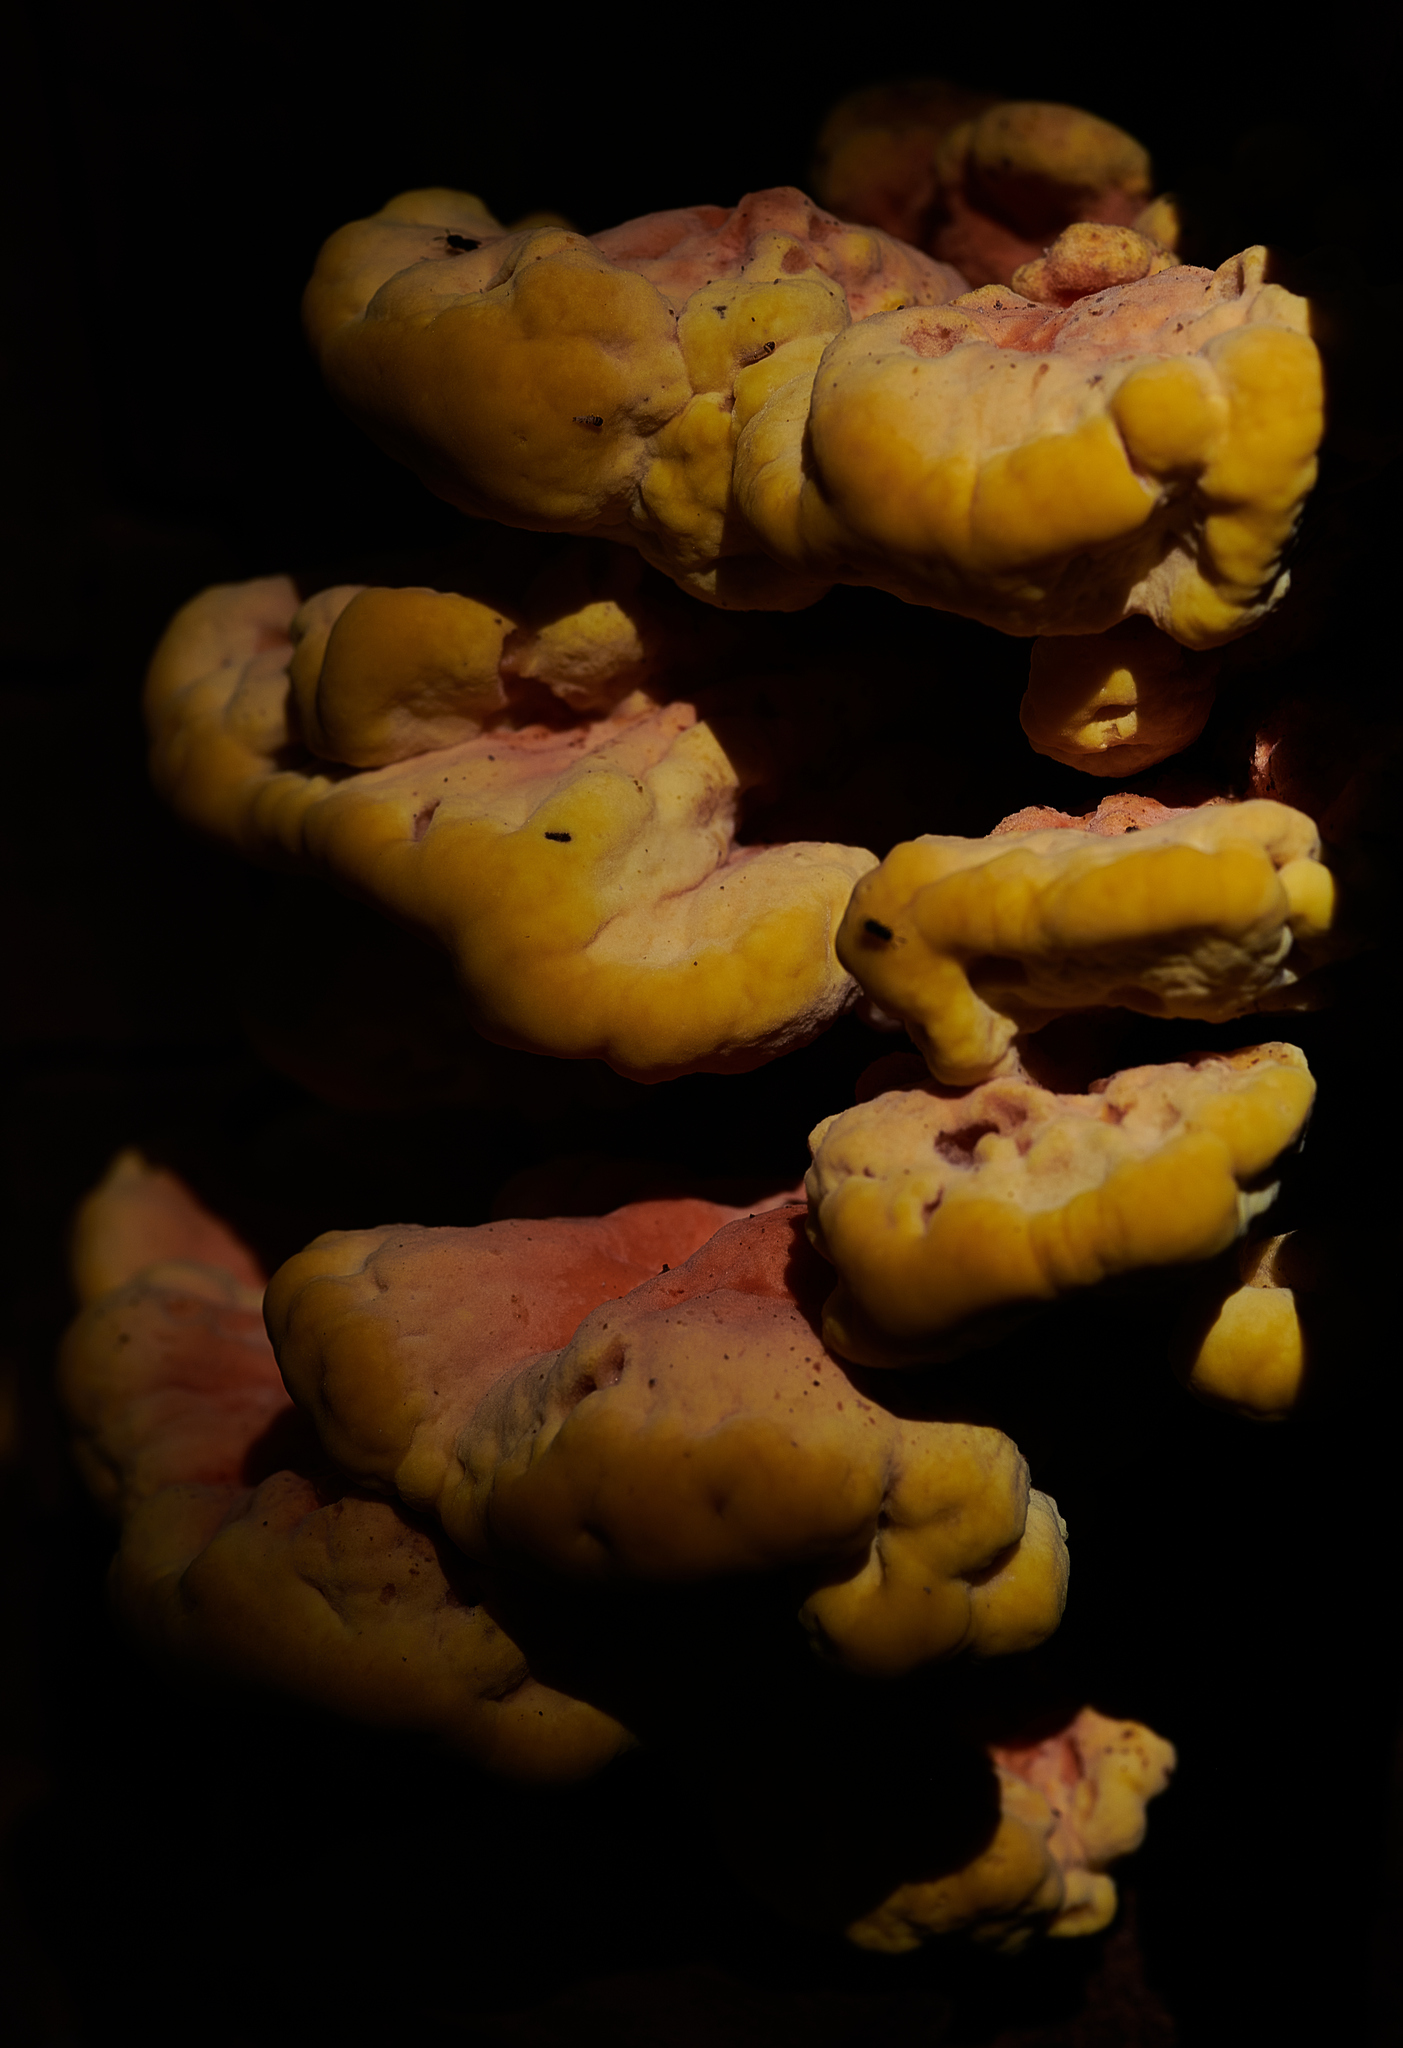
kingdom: Fungi
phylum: Basidiomycota
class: Agaricomycetes
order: Polyporales
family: Laetiporaceae
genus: Laetiporus
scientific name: Laetiporus sulphureus
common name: Chicken of the woods
